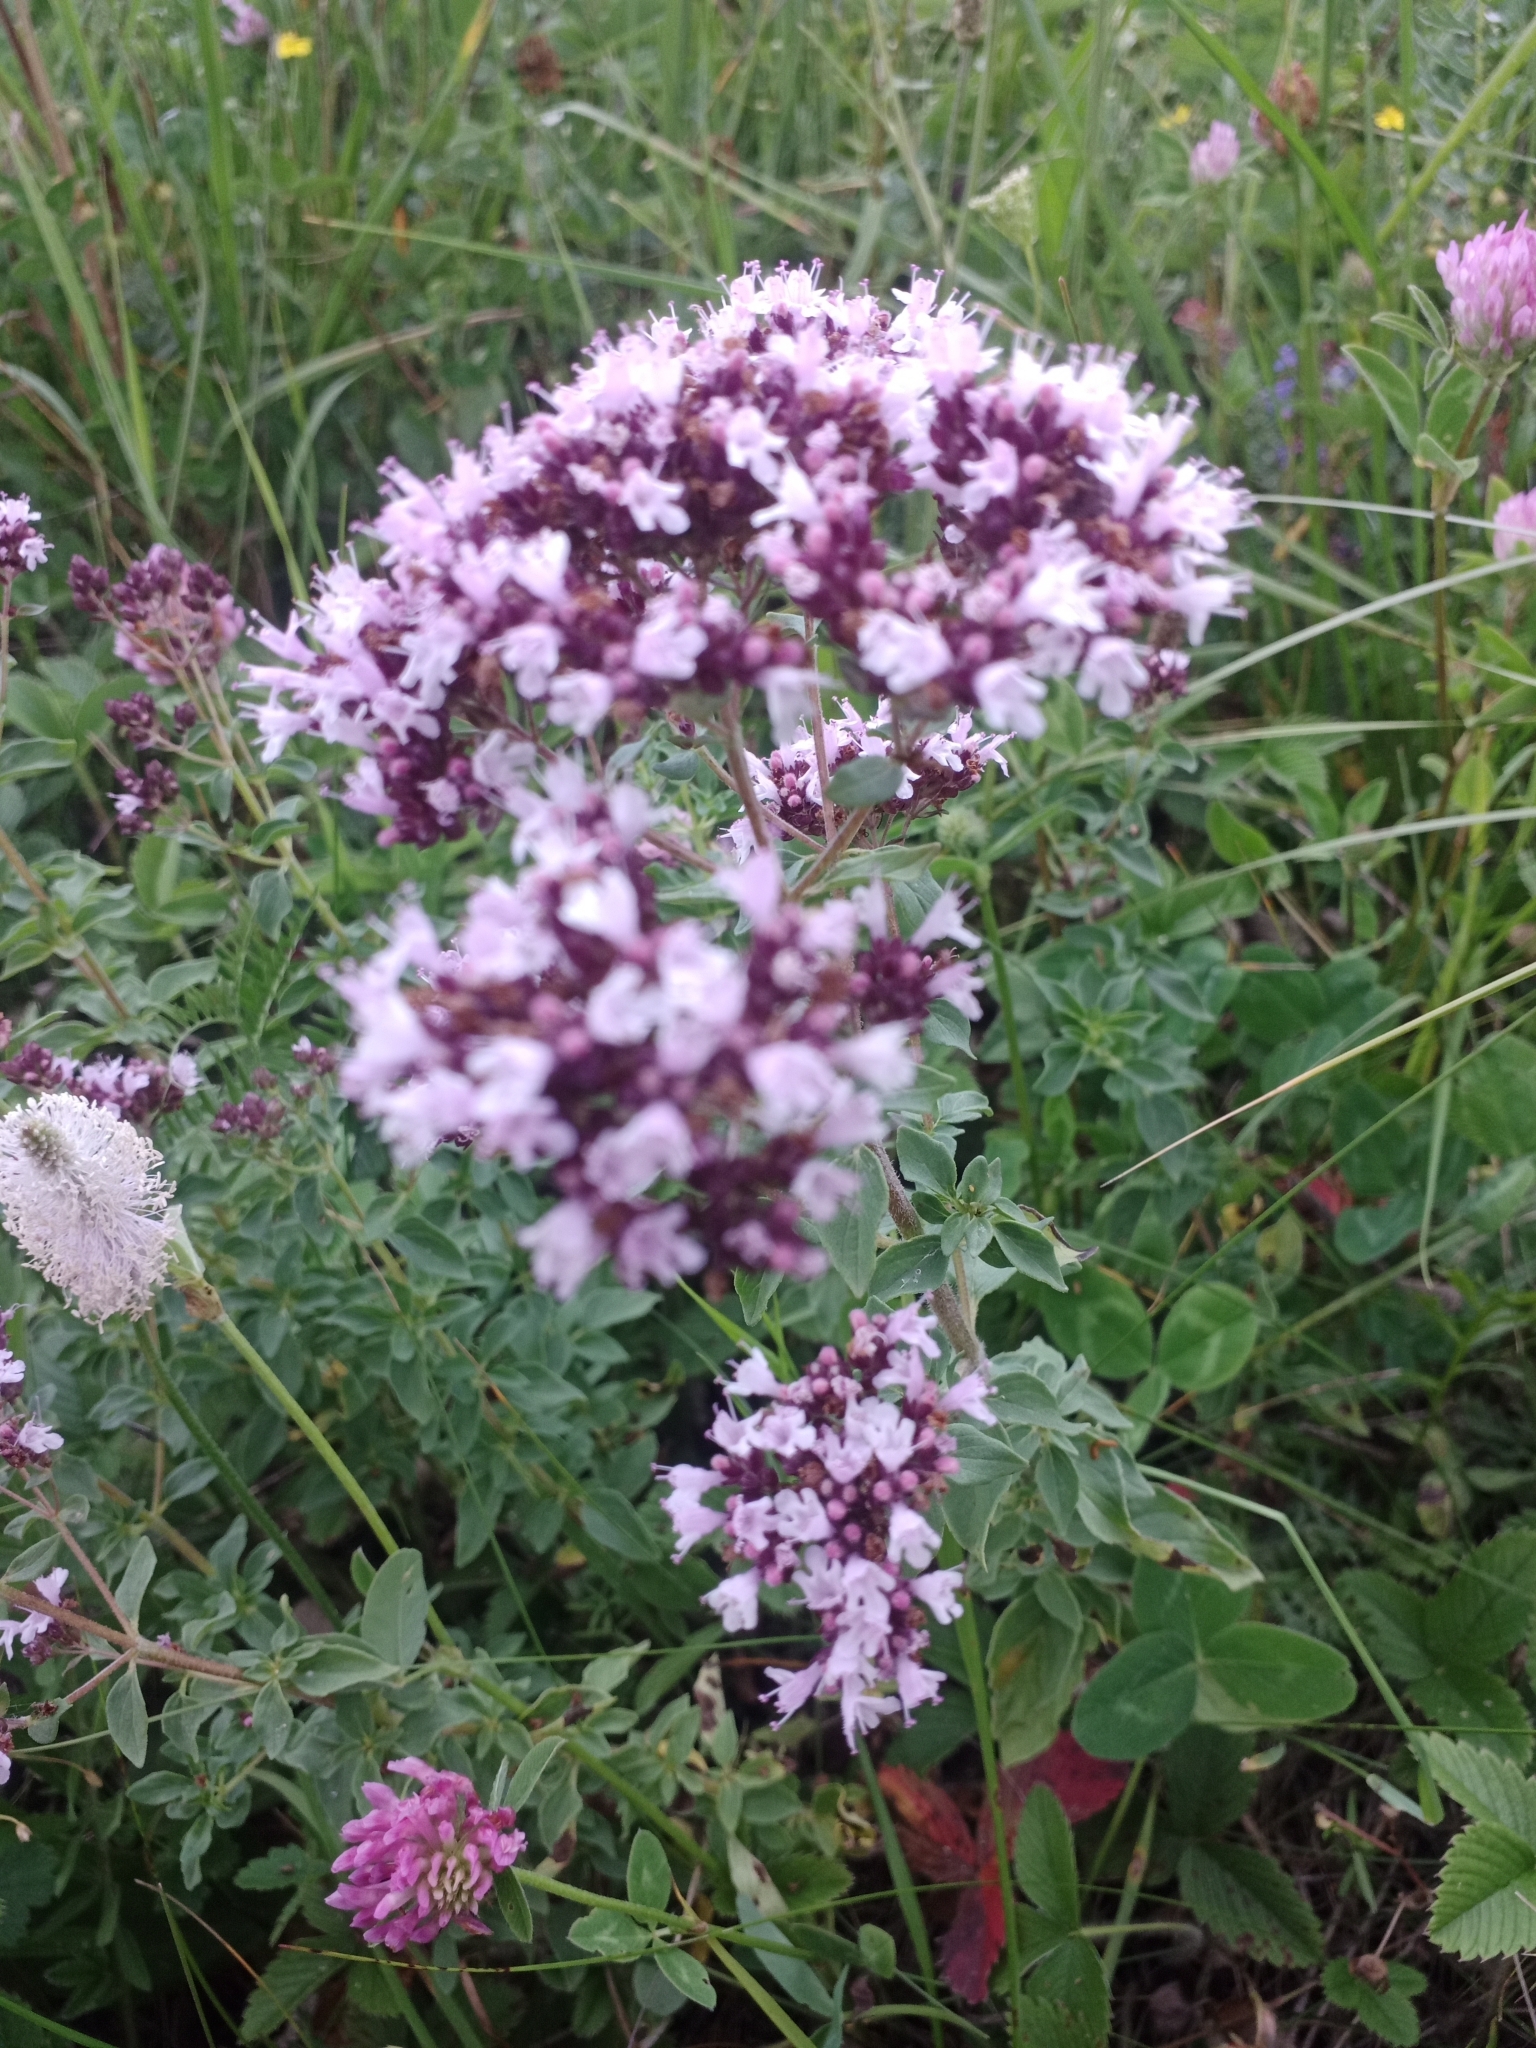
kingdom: Plantae
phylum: Tracheophyta
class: Magnoliopsida
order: Lamiales
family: Lamiaceae
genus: Origanum
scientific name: Origanum vulgare
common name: Wild marjoram
